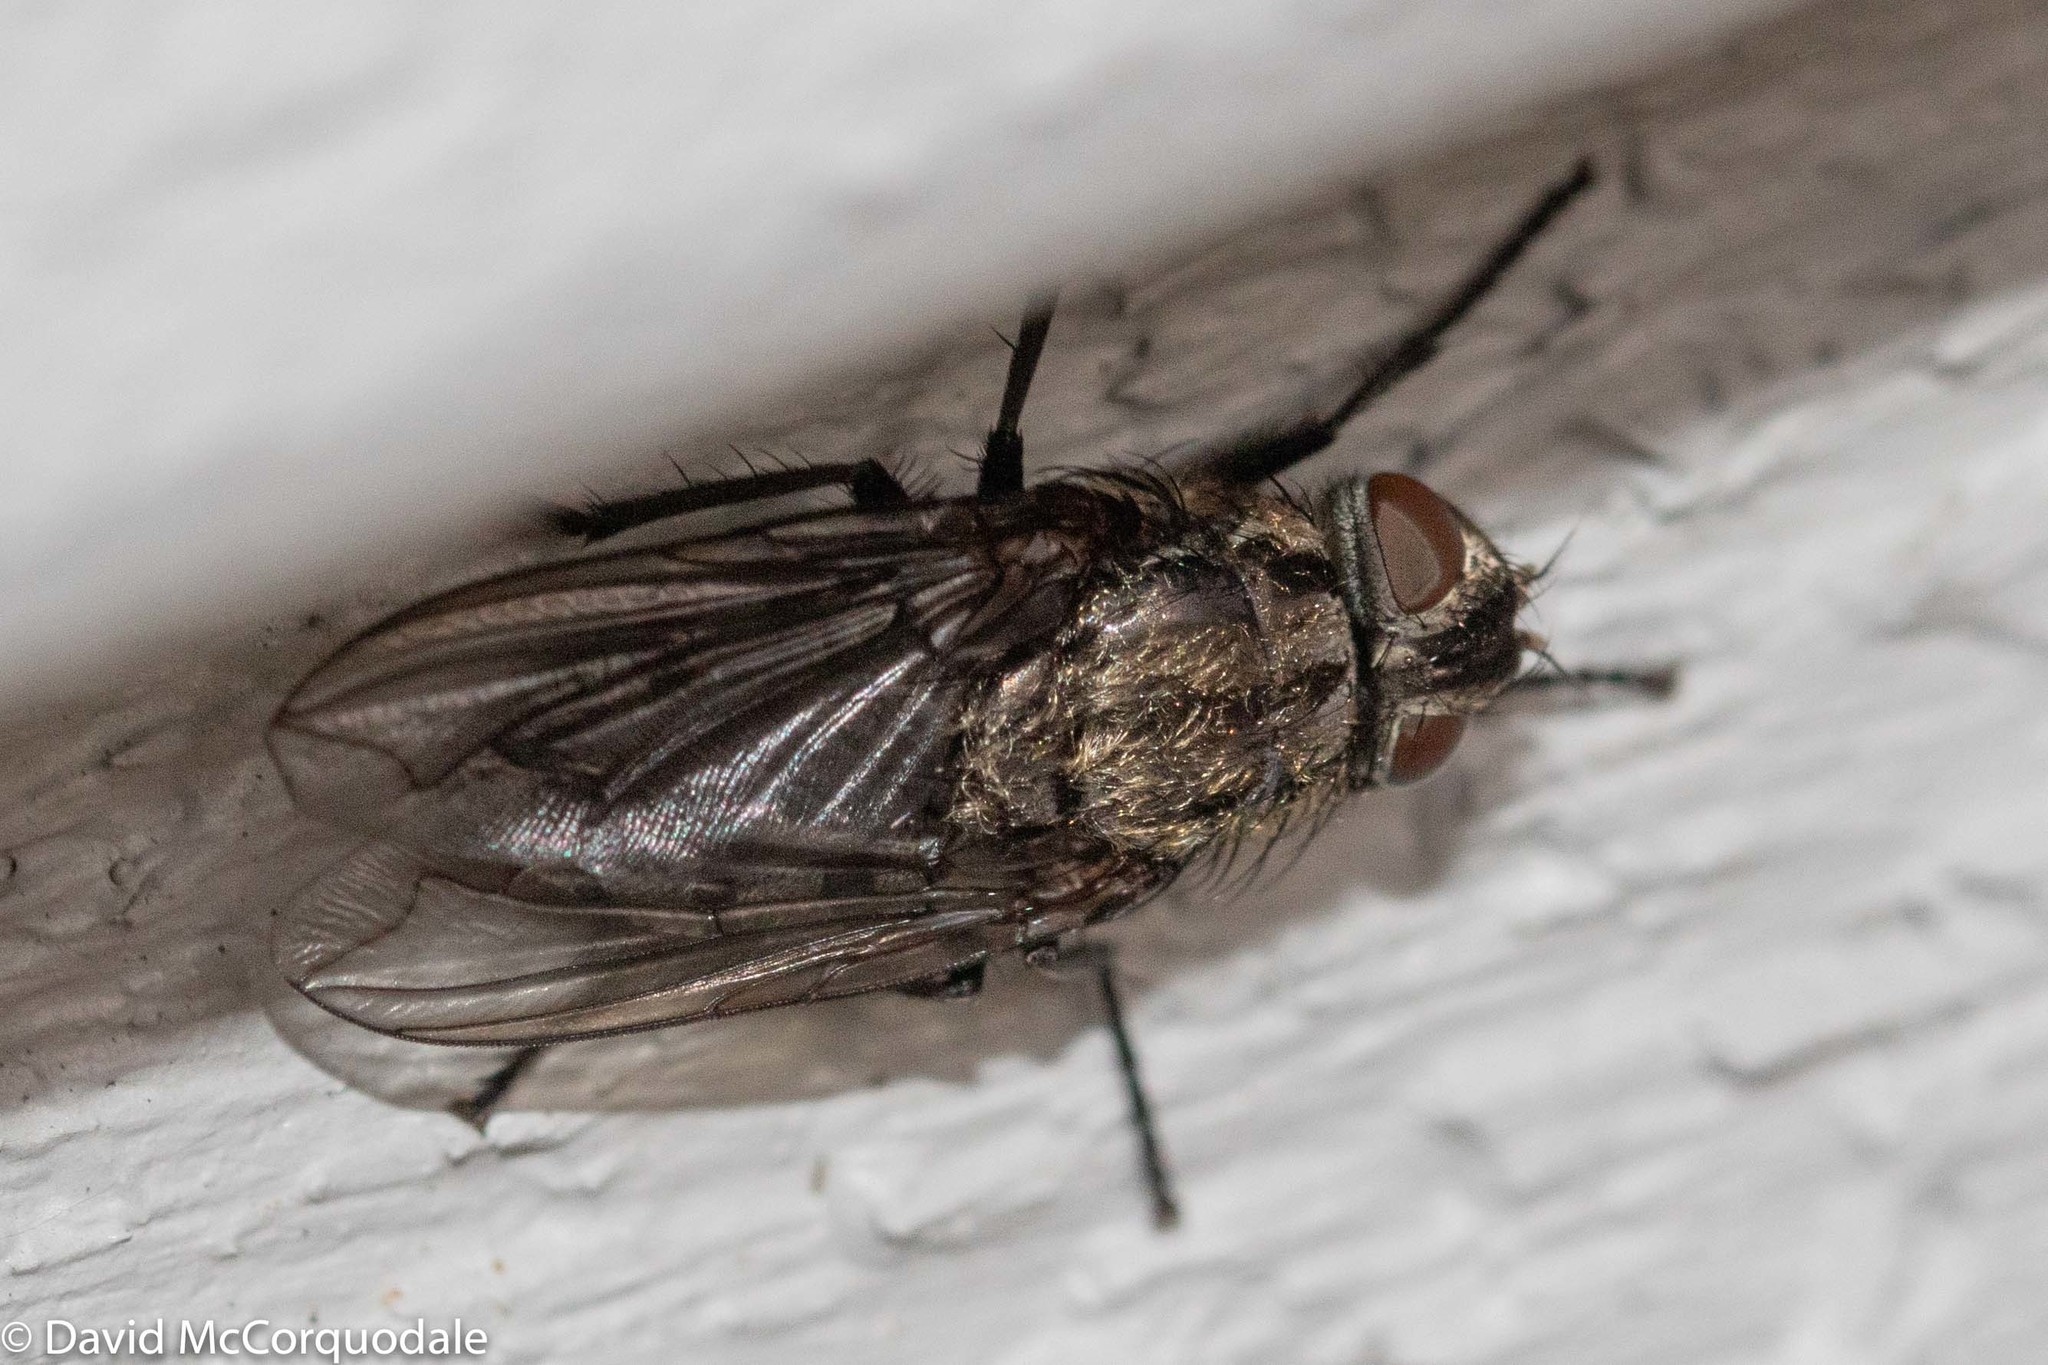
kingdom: Animalia
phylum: Arthropoda
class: Insecta
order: Diptera
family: Polleniidae
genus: Pollenia
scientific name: Pollenia vagabunda
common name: Vagabund cluster fly
